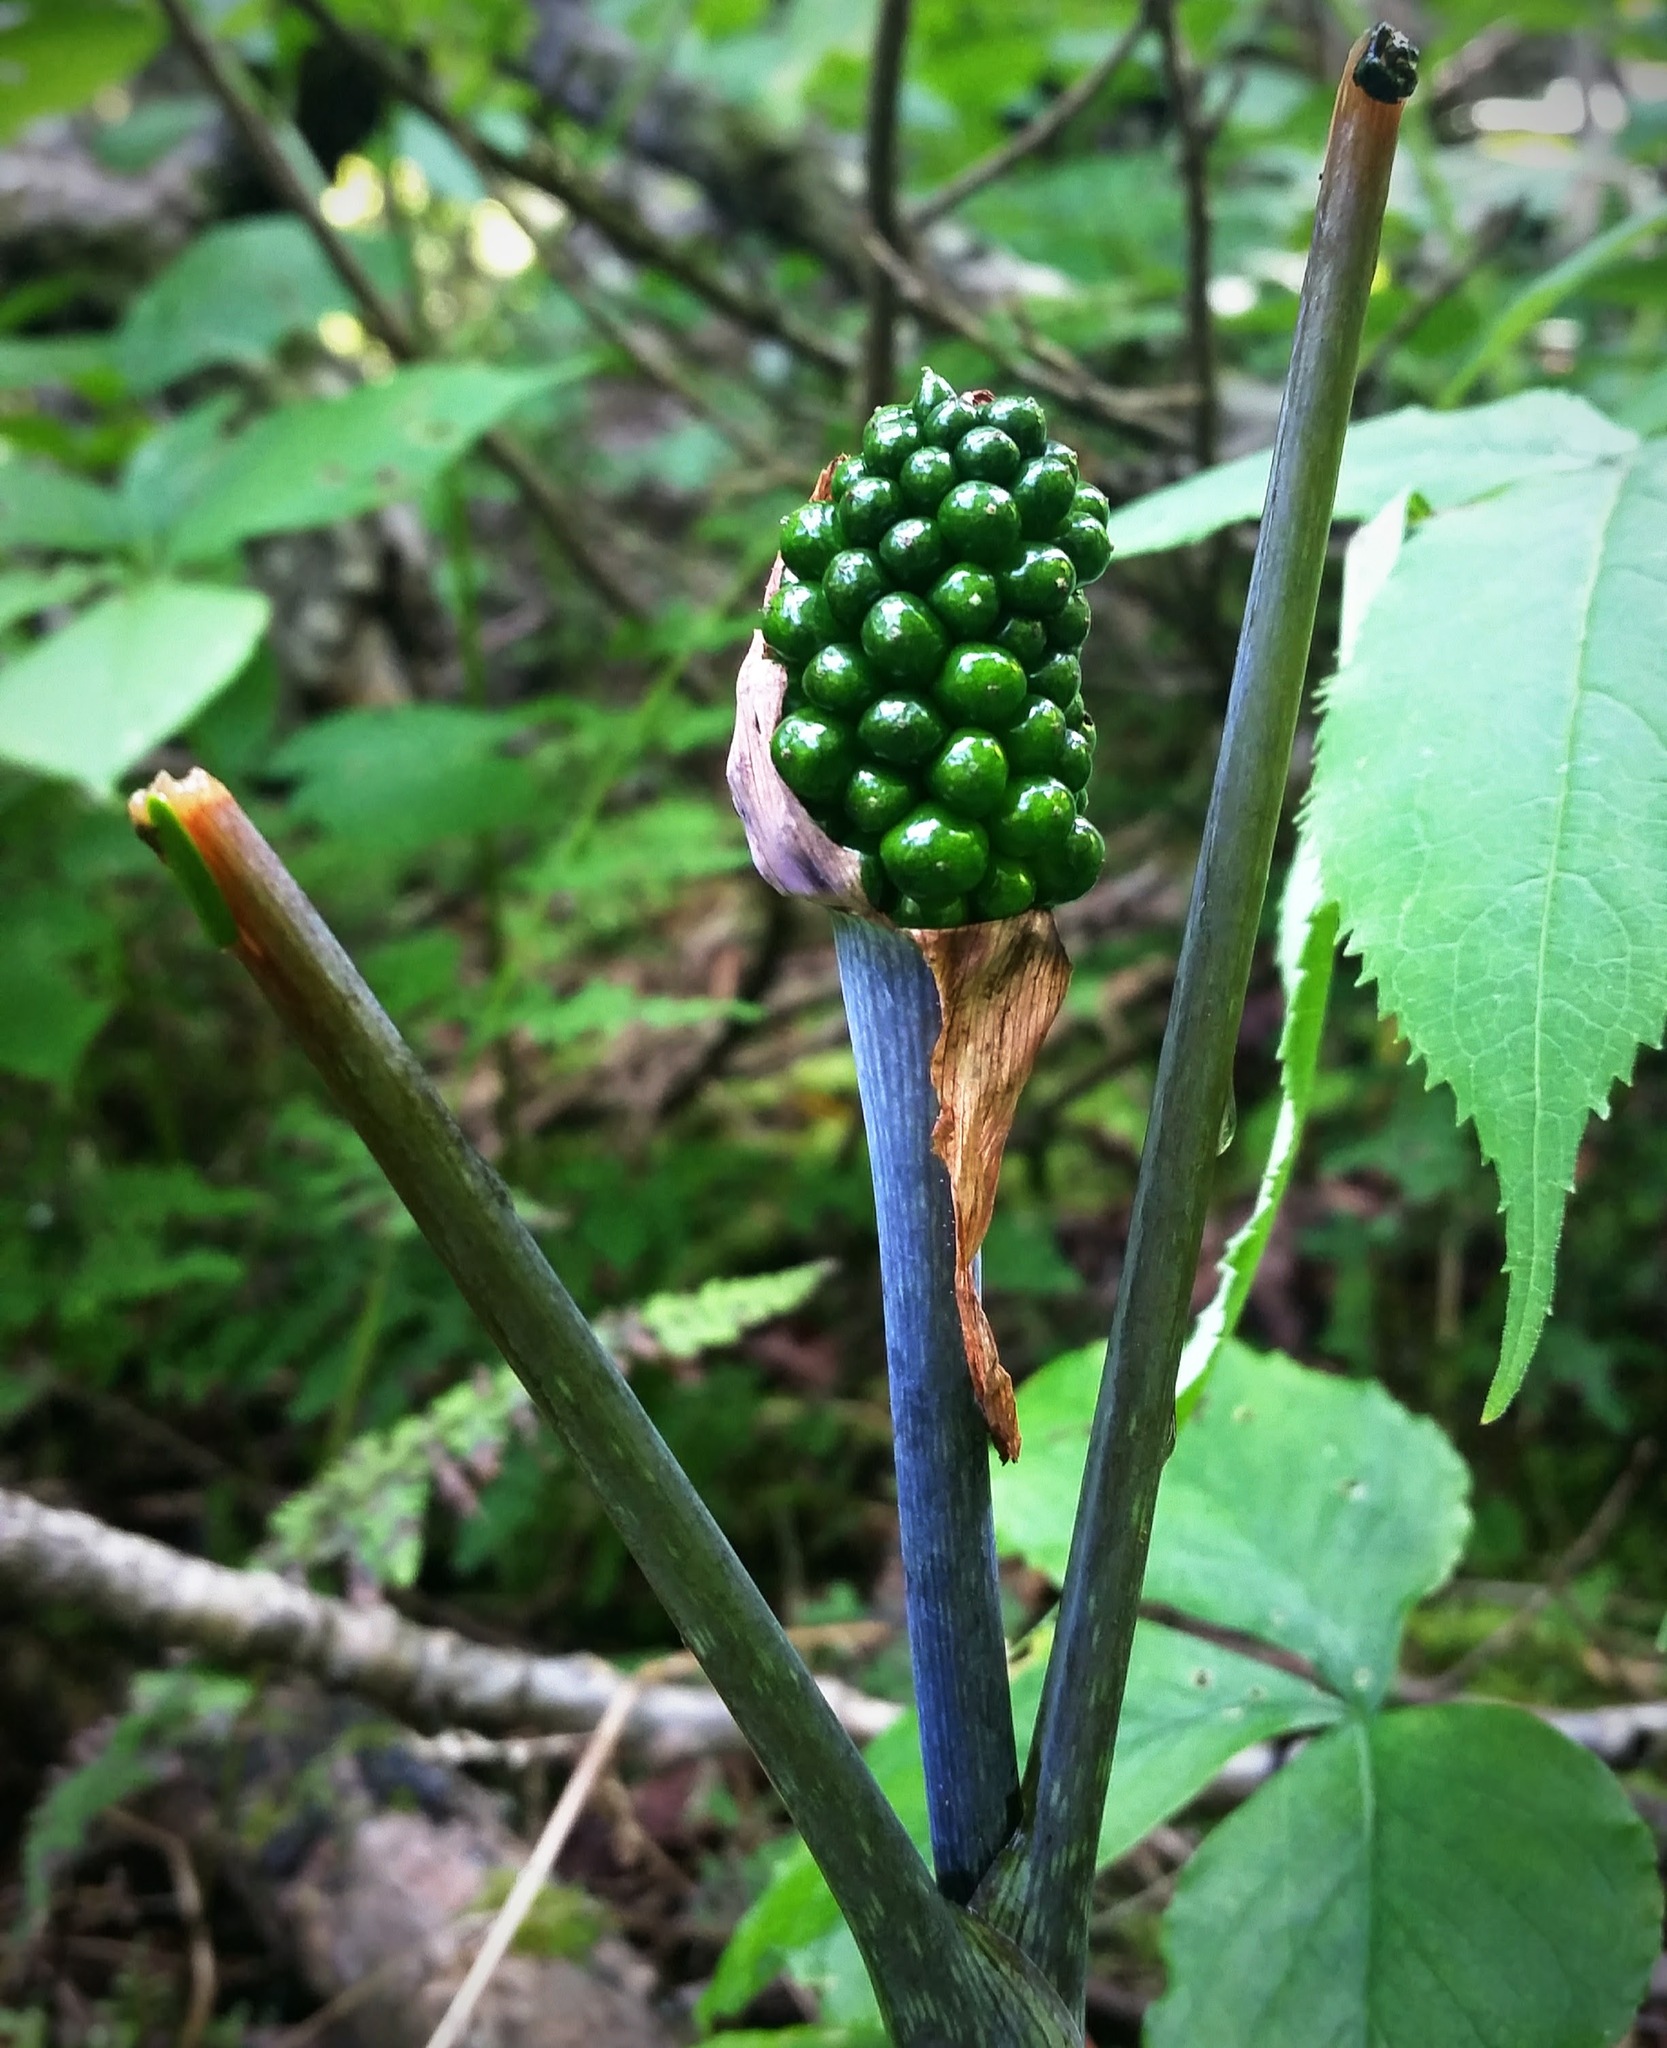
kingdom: Plantae
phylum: Tracheophyta
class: Liliopsida
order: Alismatales
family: Araceae
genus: Arisaema
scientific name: Arisaema triphyllum
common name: Jack-in-the-pulpit
